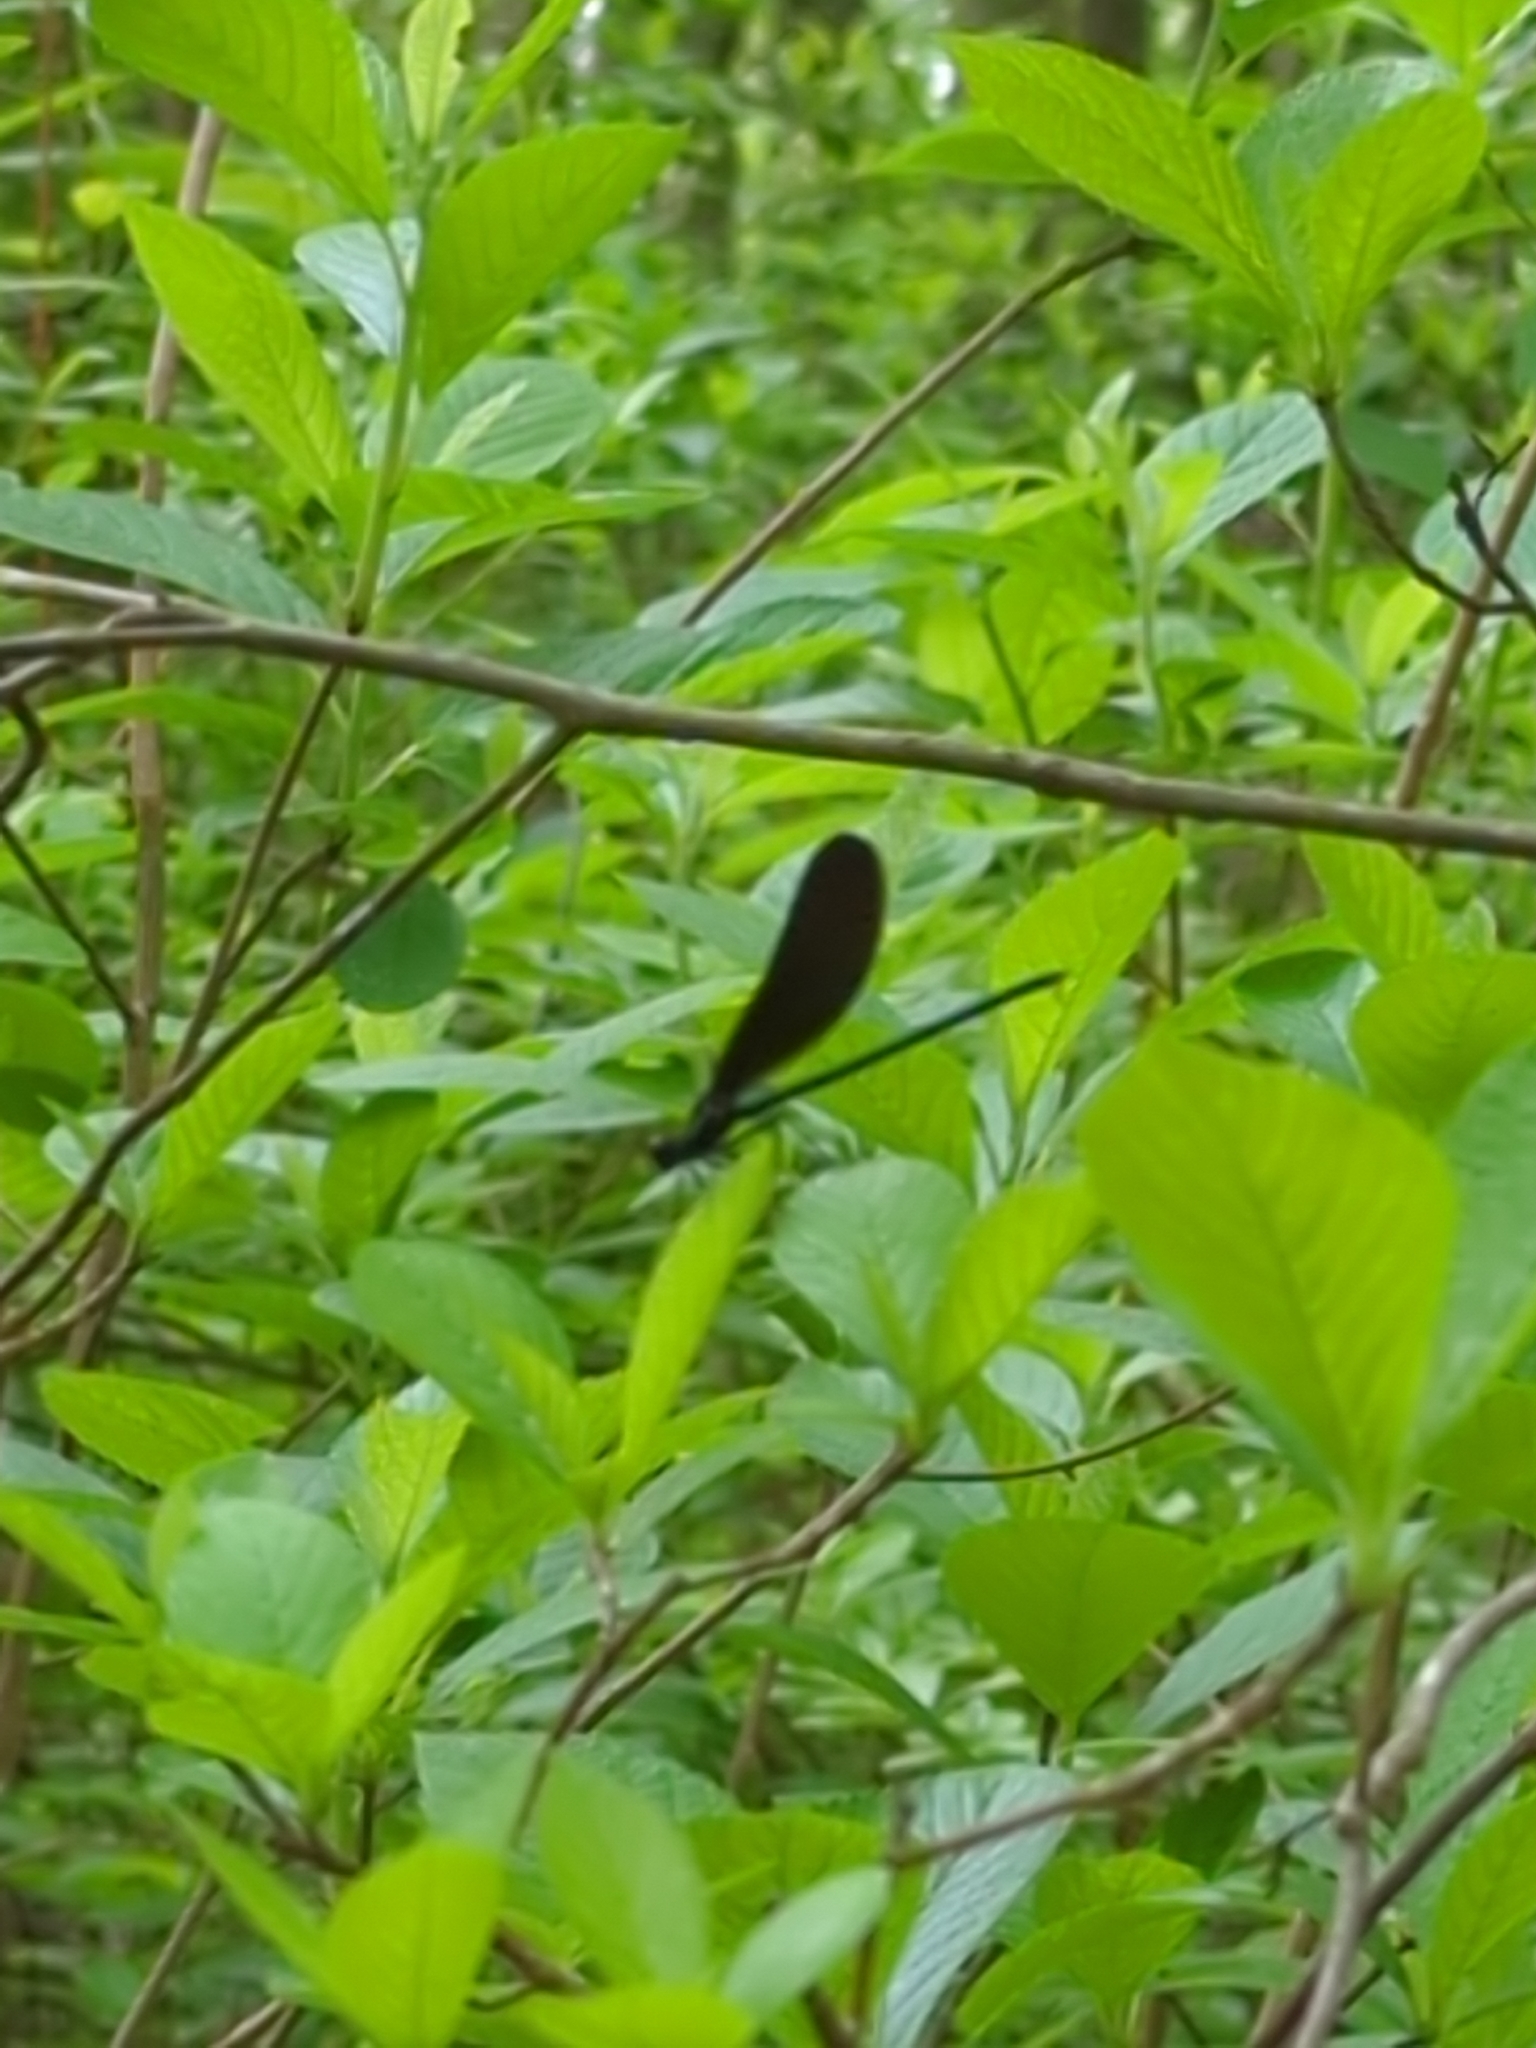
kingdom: Animalia
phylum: Arthropoda
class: Insecta
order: Odonata
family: Calopterygidae
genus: Calopteryx
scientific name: Calopteryx maculata
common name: Ebony jewelwing
